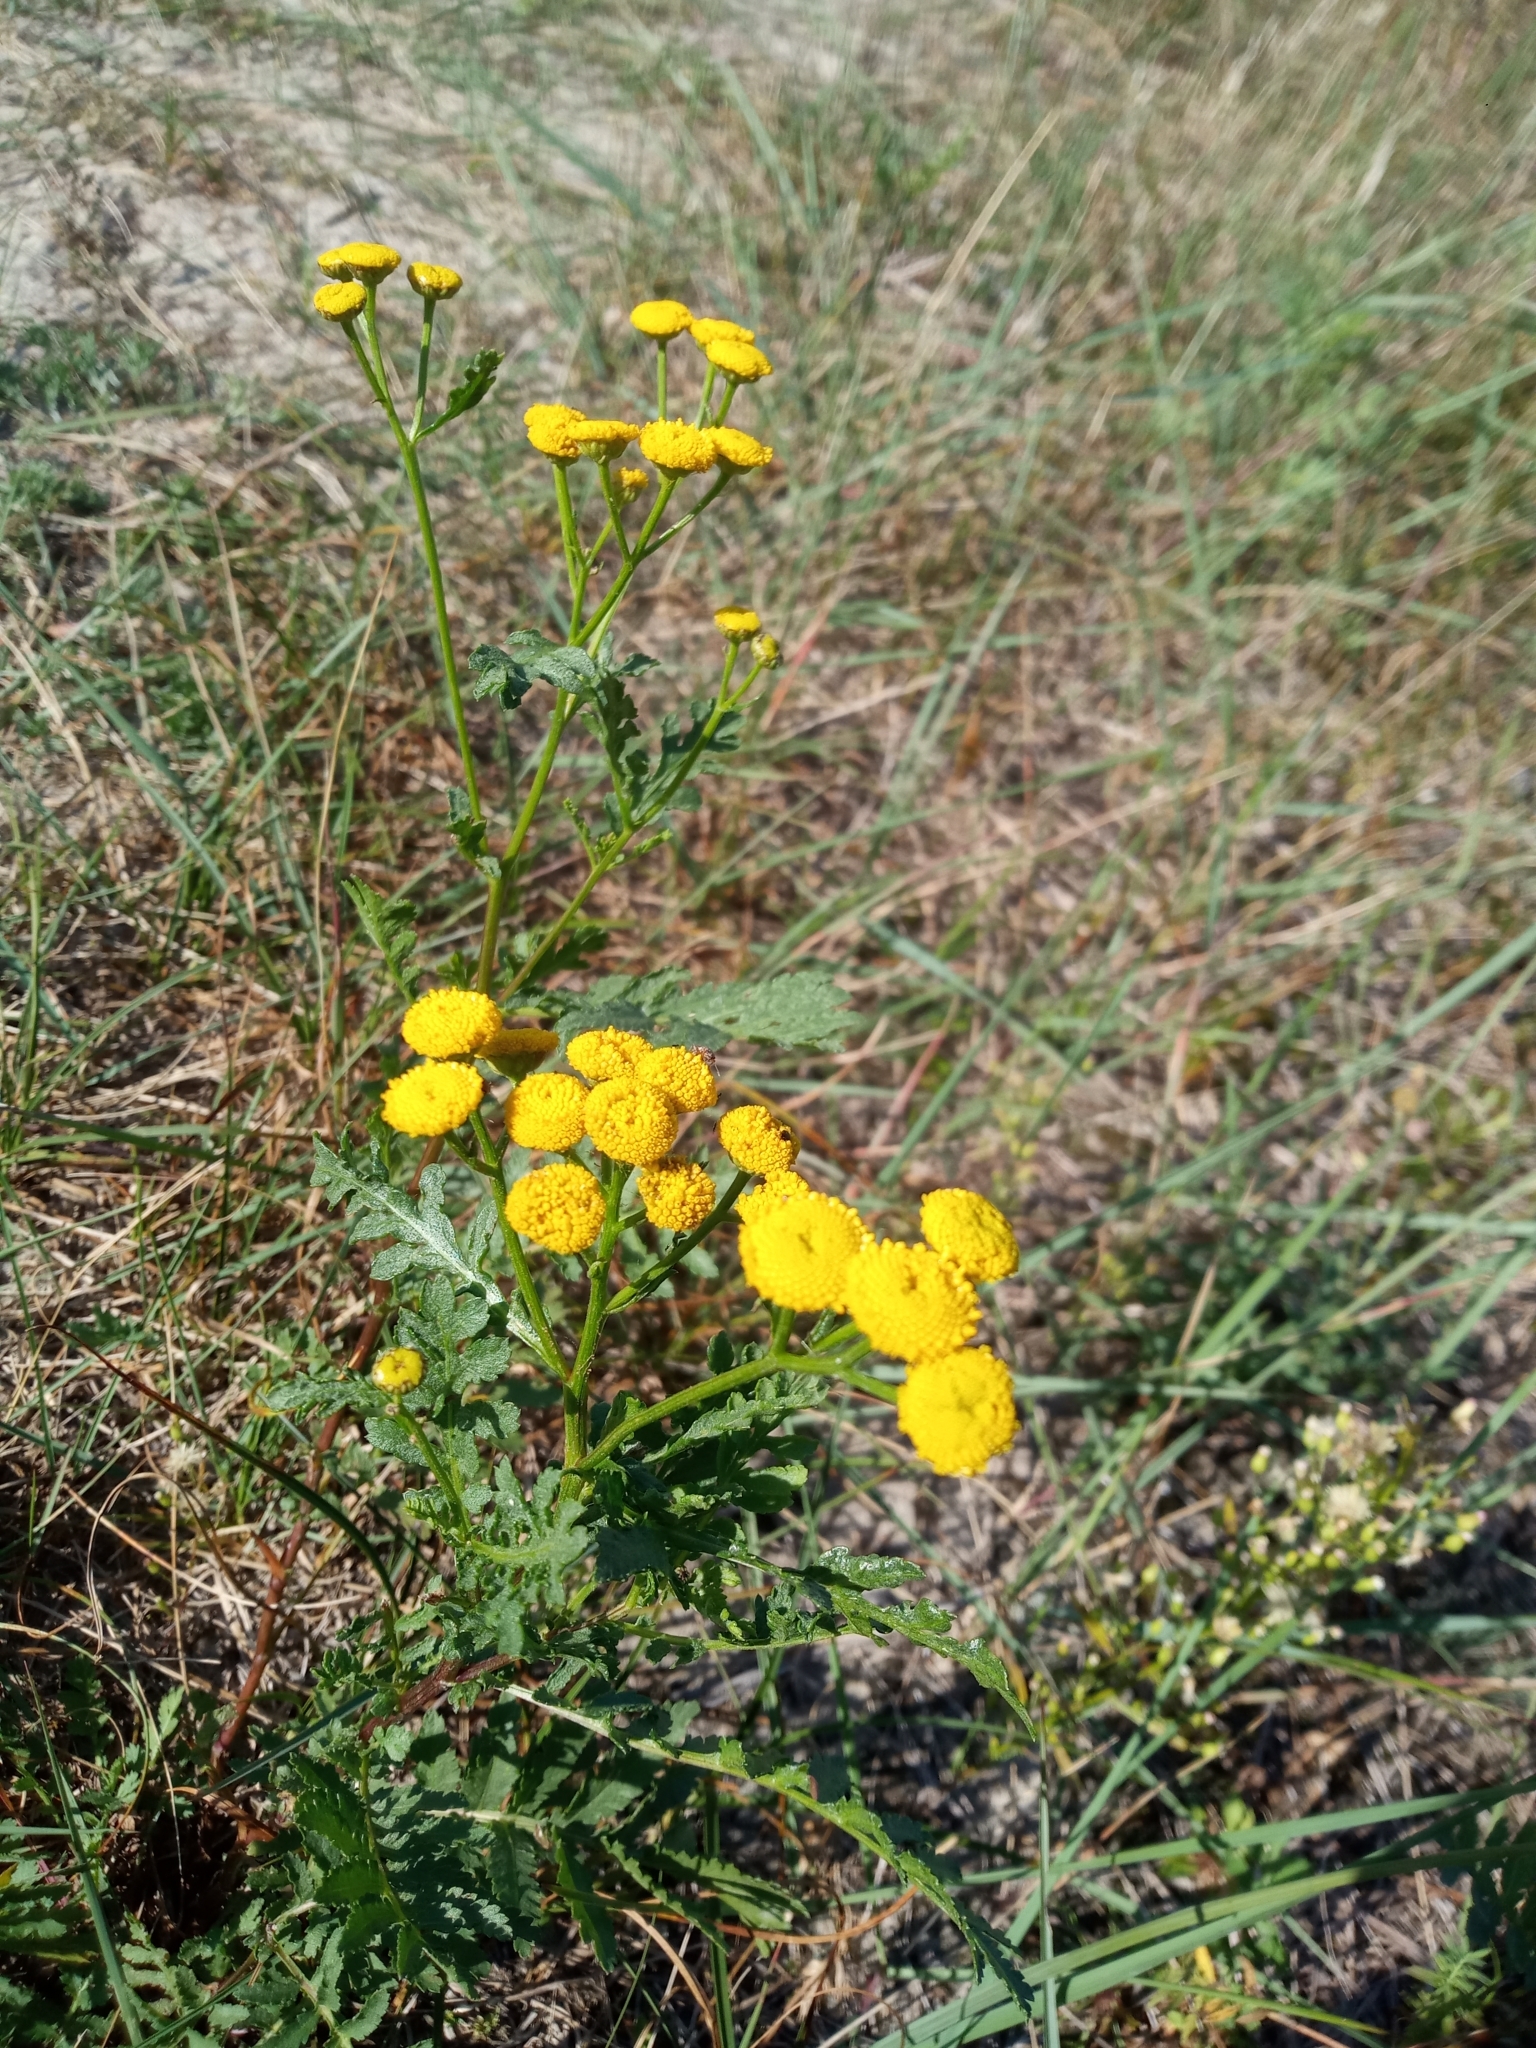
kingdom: Plantae
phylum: Tracheophyta
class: Magnoliopsida
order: Asterales
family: Asteraceae
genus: Tanacetum
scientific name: Tanacetum vulgare
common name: Common tansy
